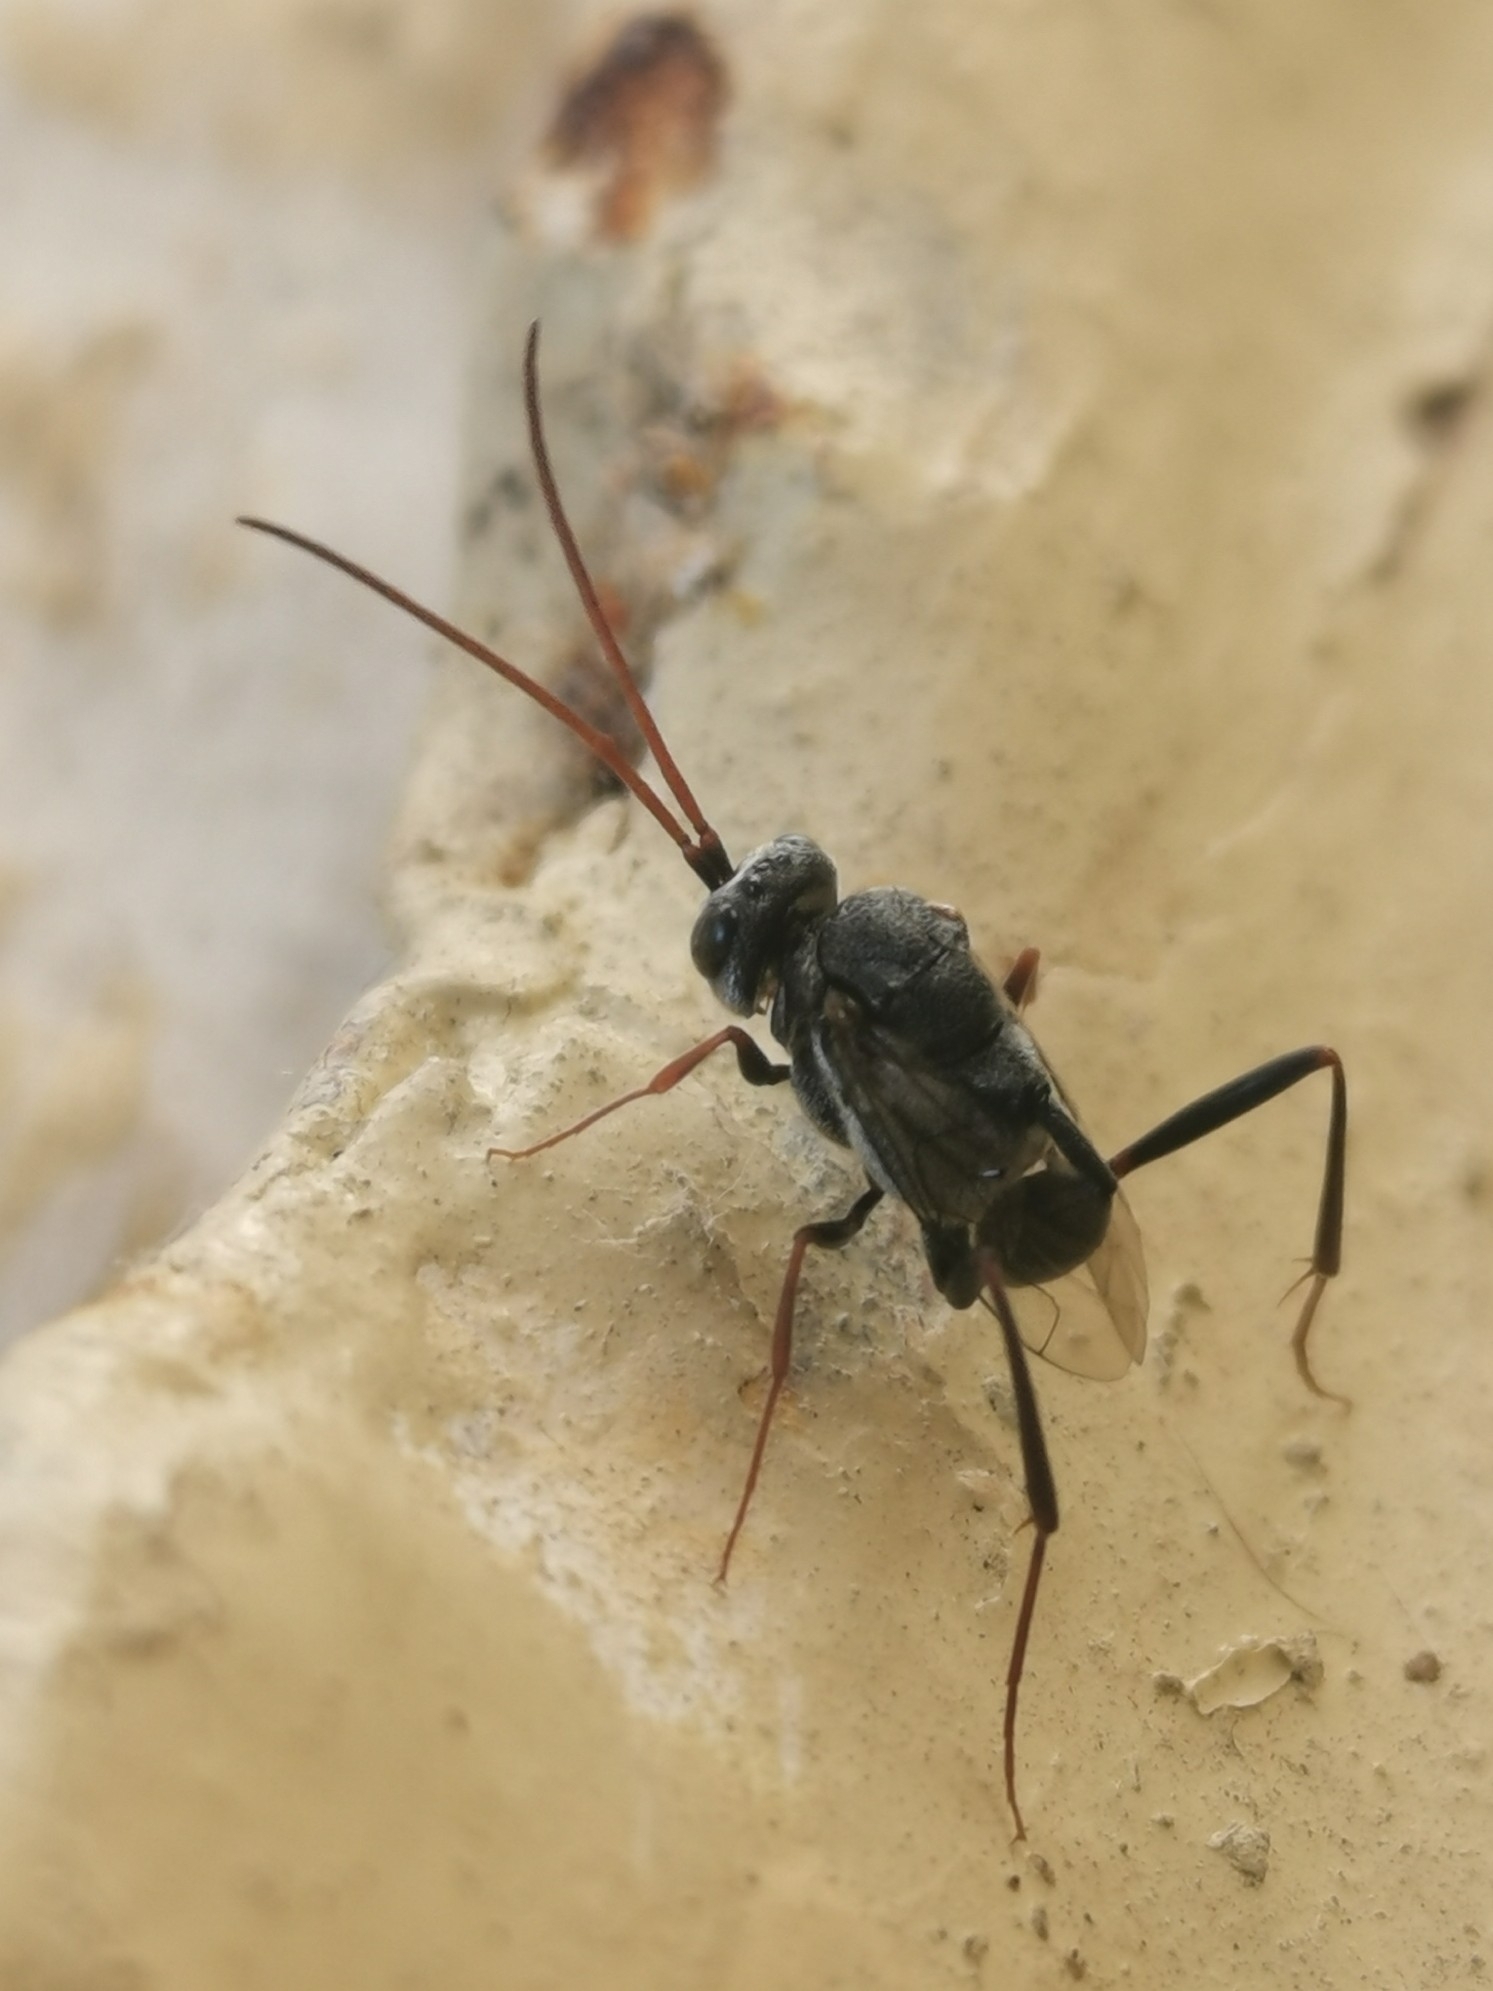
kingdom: Animalia
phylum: Arthropoda
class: Insecta
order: Hymenoptera
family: Evaniidae
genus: Prosevania
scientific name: Prosevania fuscipes
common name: Ensign wasp
